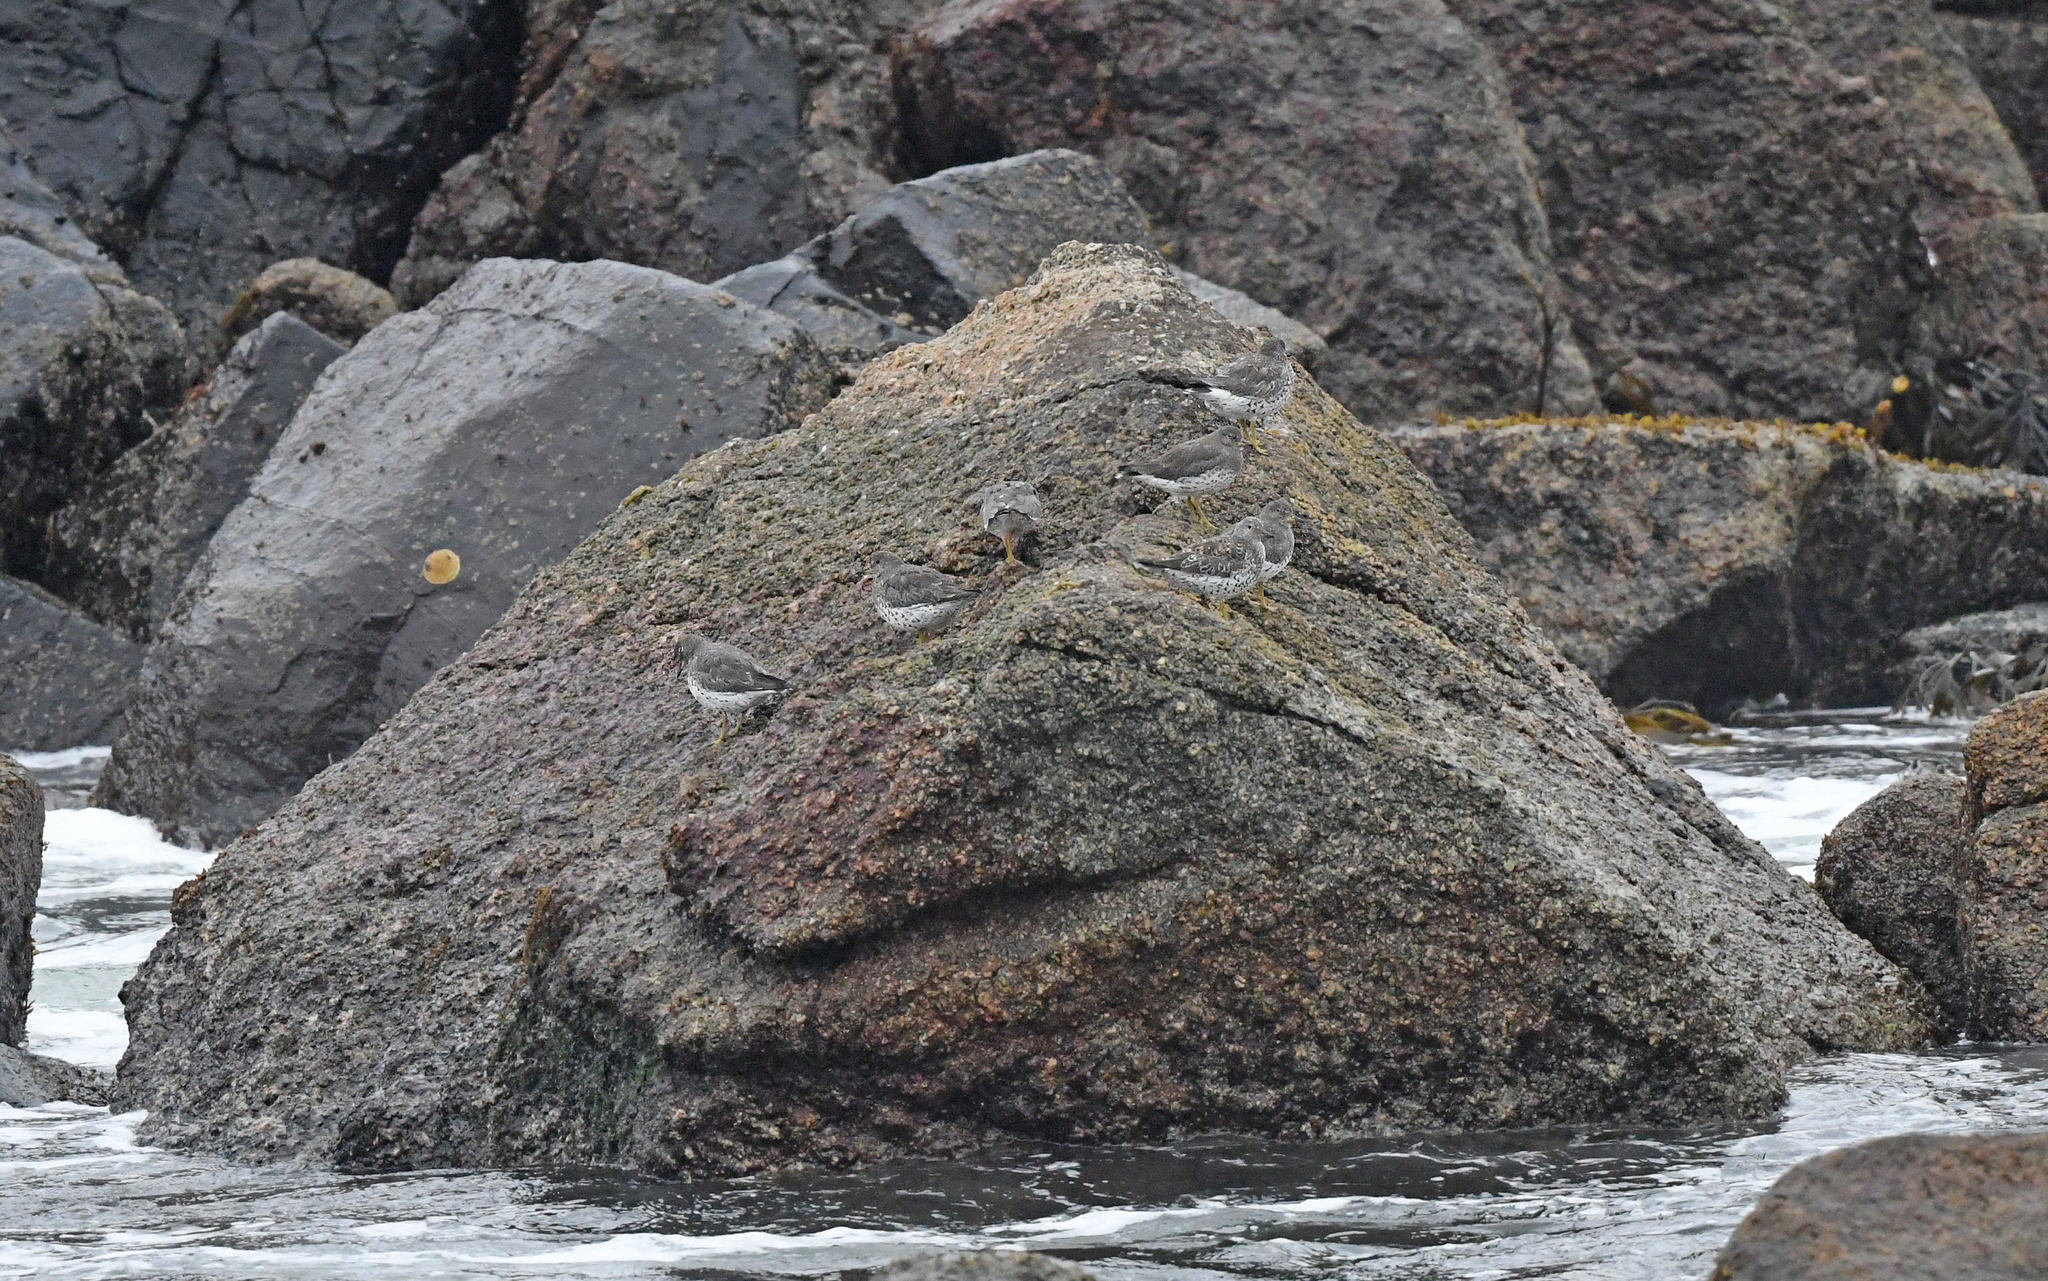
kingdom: Animalia
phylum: Chordata
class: Aves
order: Charadriiformes
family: Scolopacidae
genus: Calidris
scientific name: Calidris virgata
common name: Surfbird
